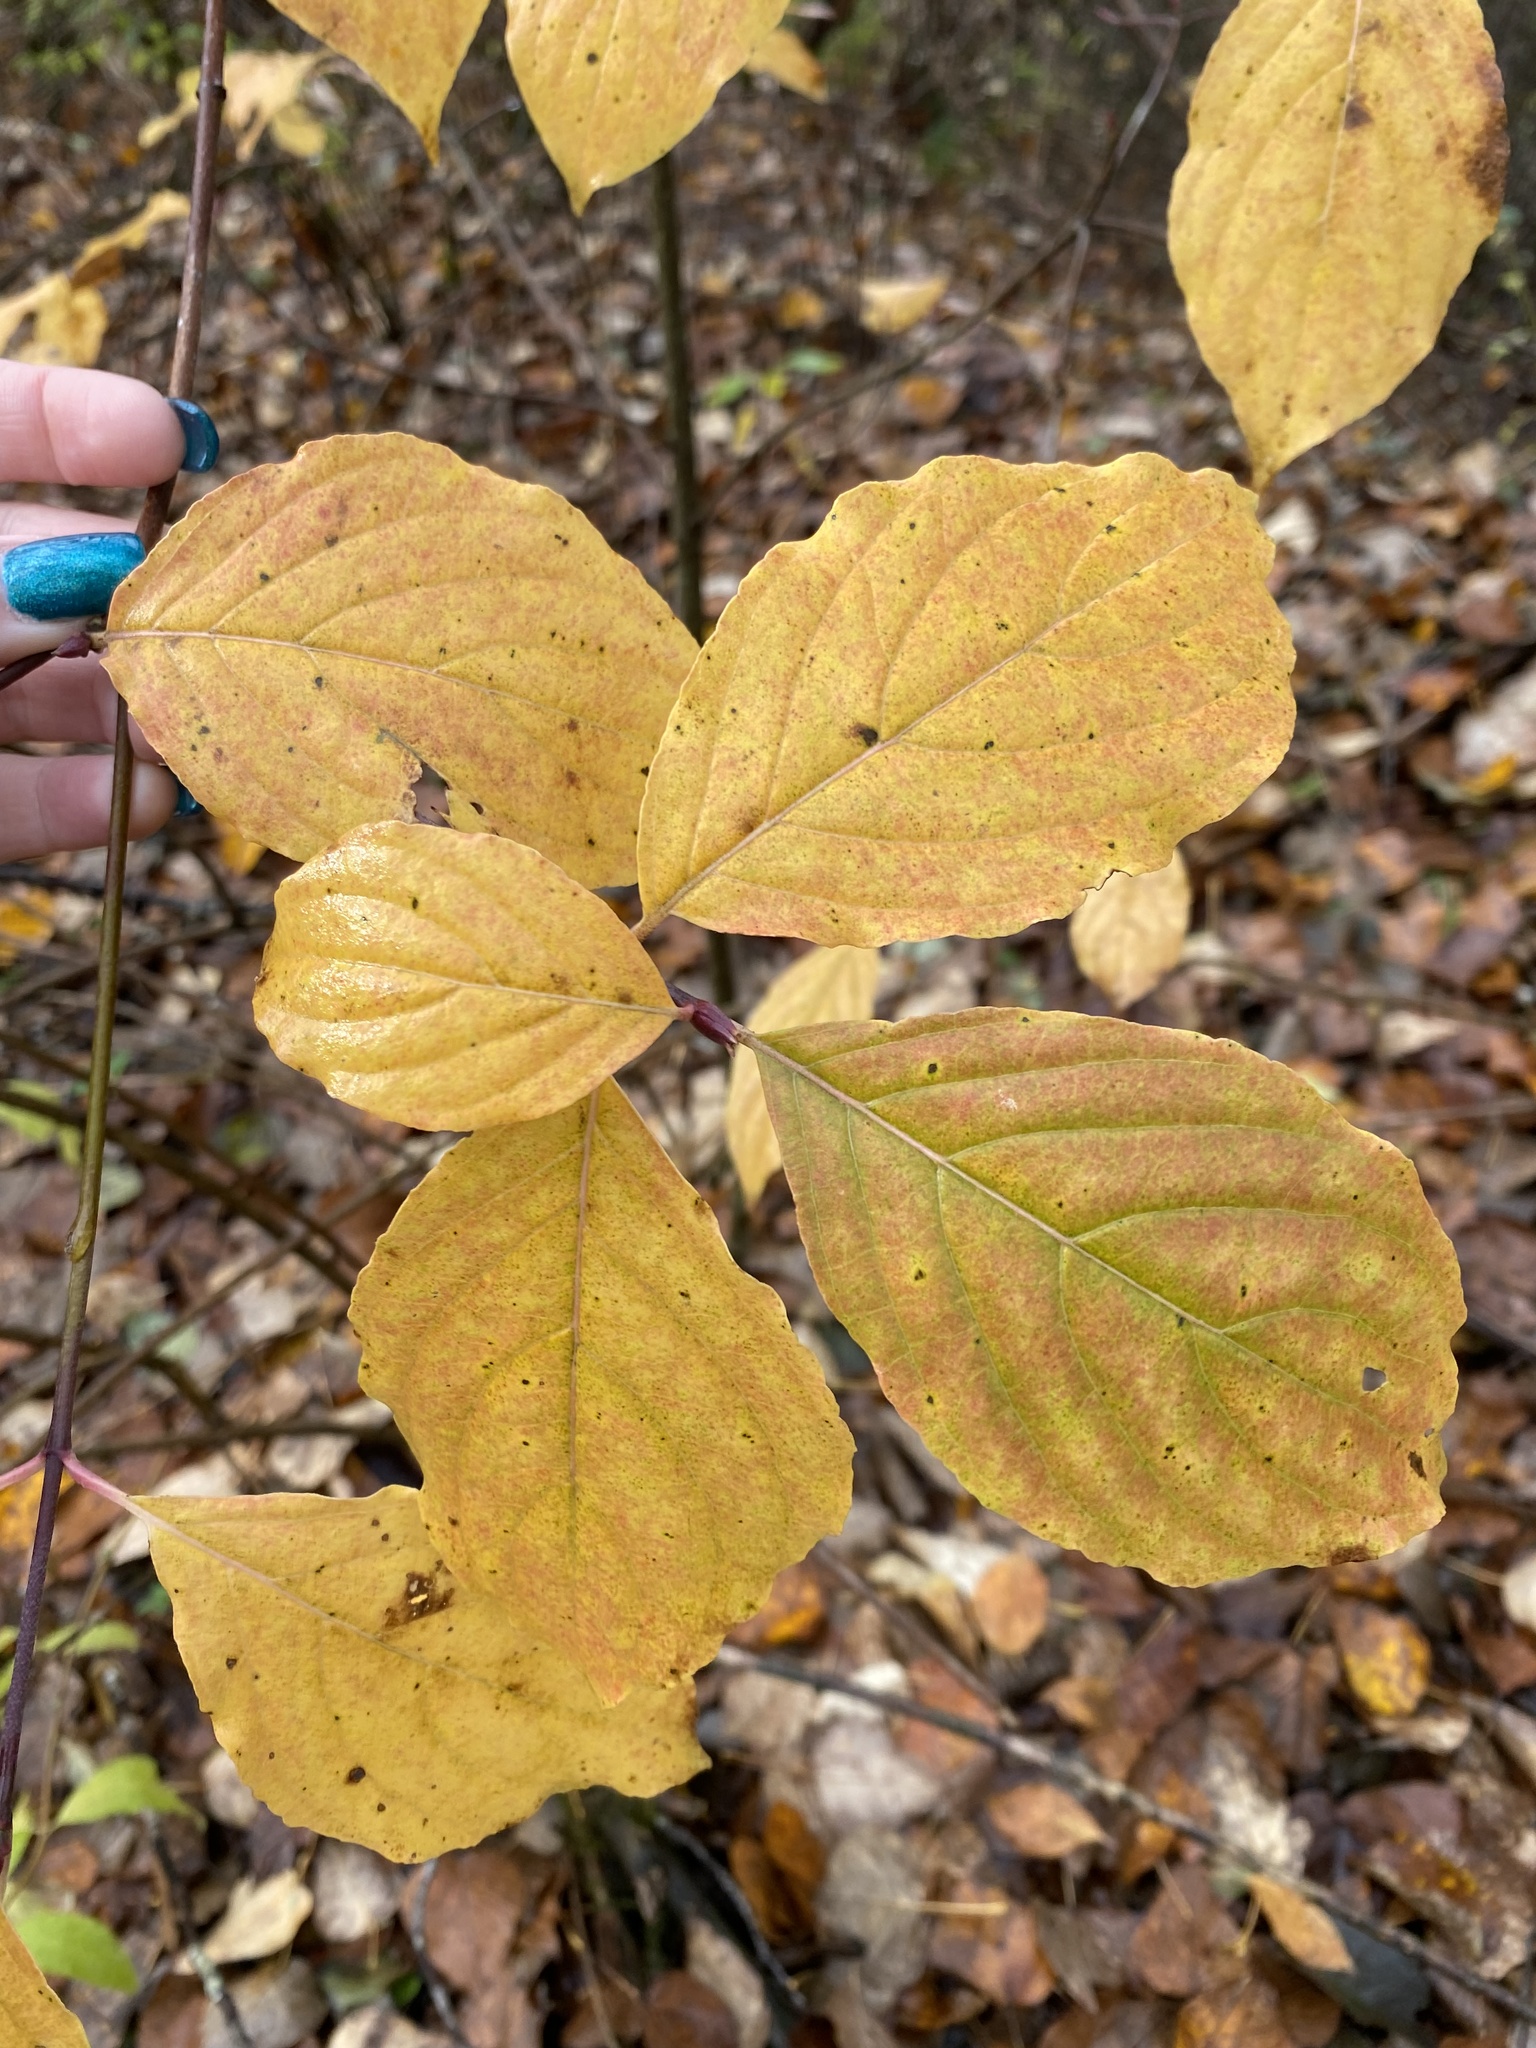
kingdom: Plantae
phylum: Tracheophyta
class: Magnoliopsida
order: Cornales
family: Cornaceae
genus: Cornus
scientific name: Cornus nuttallii
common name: Pacific dogwood
